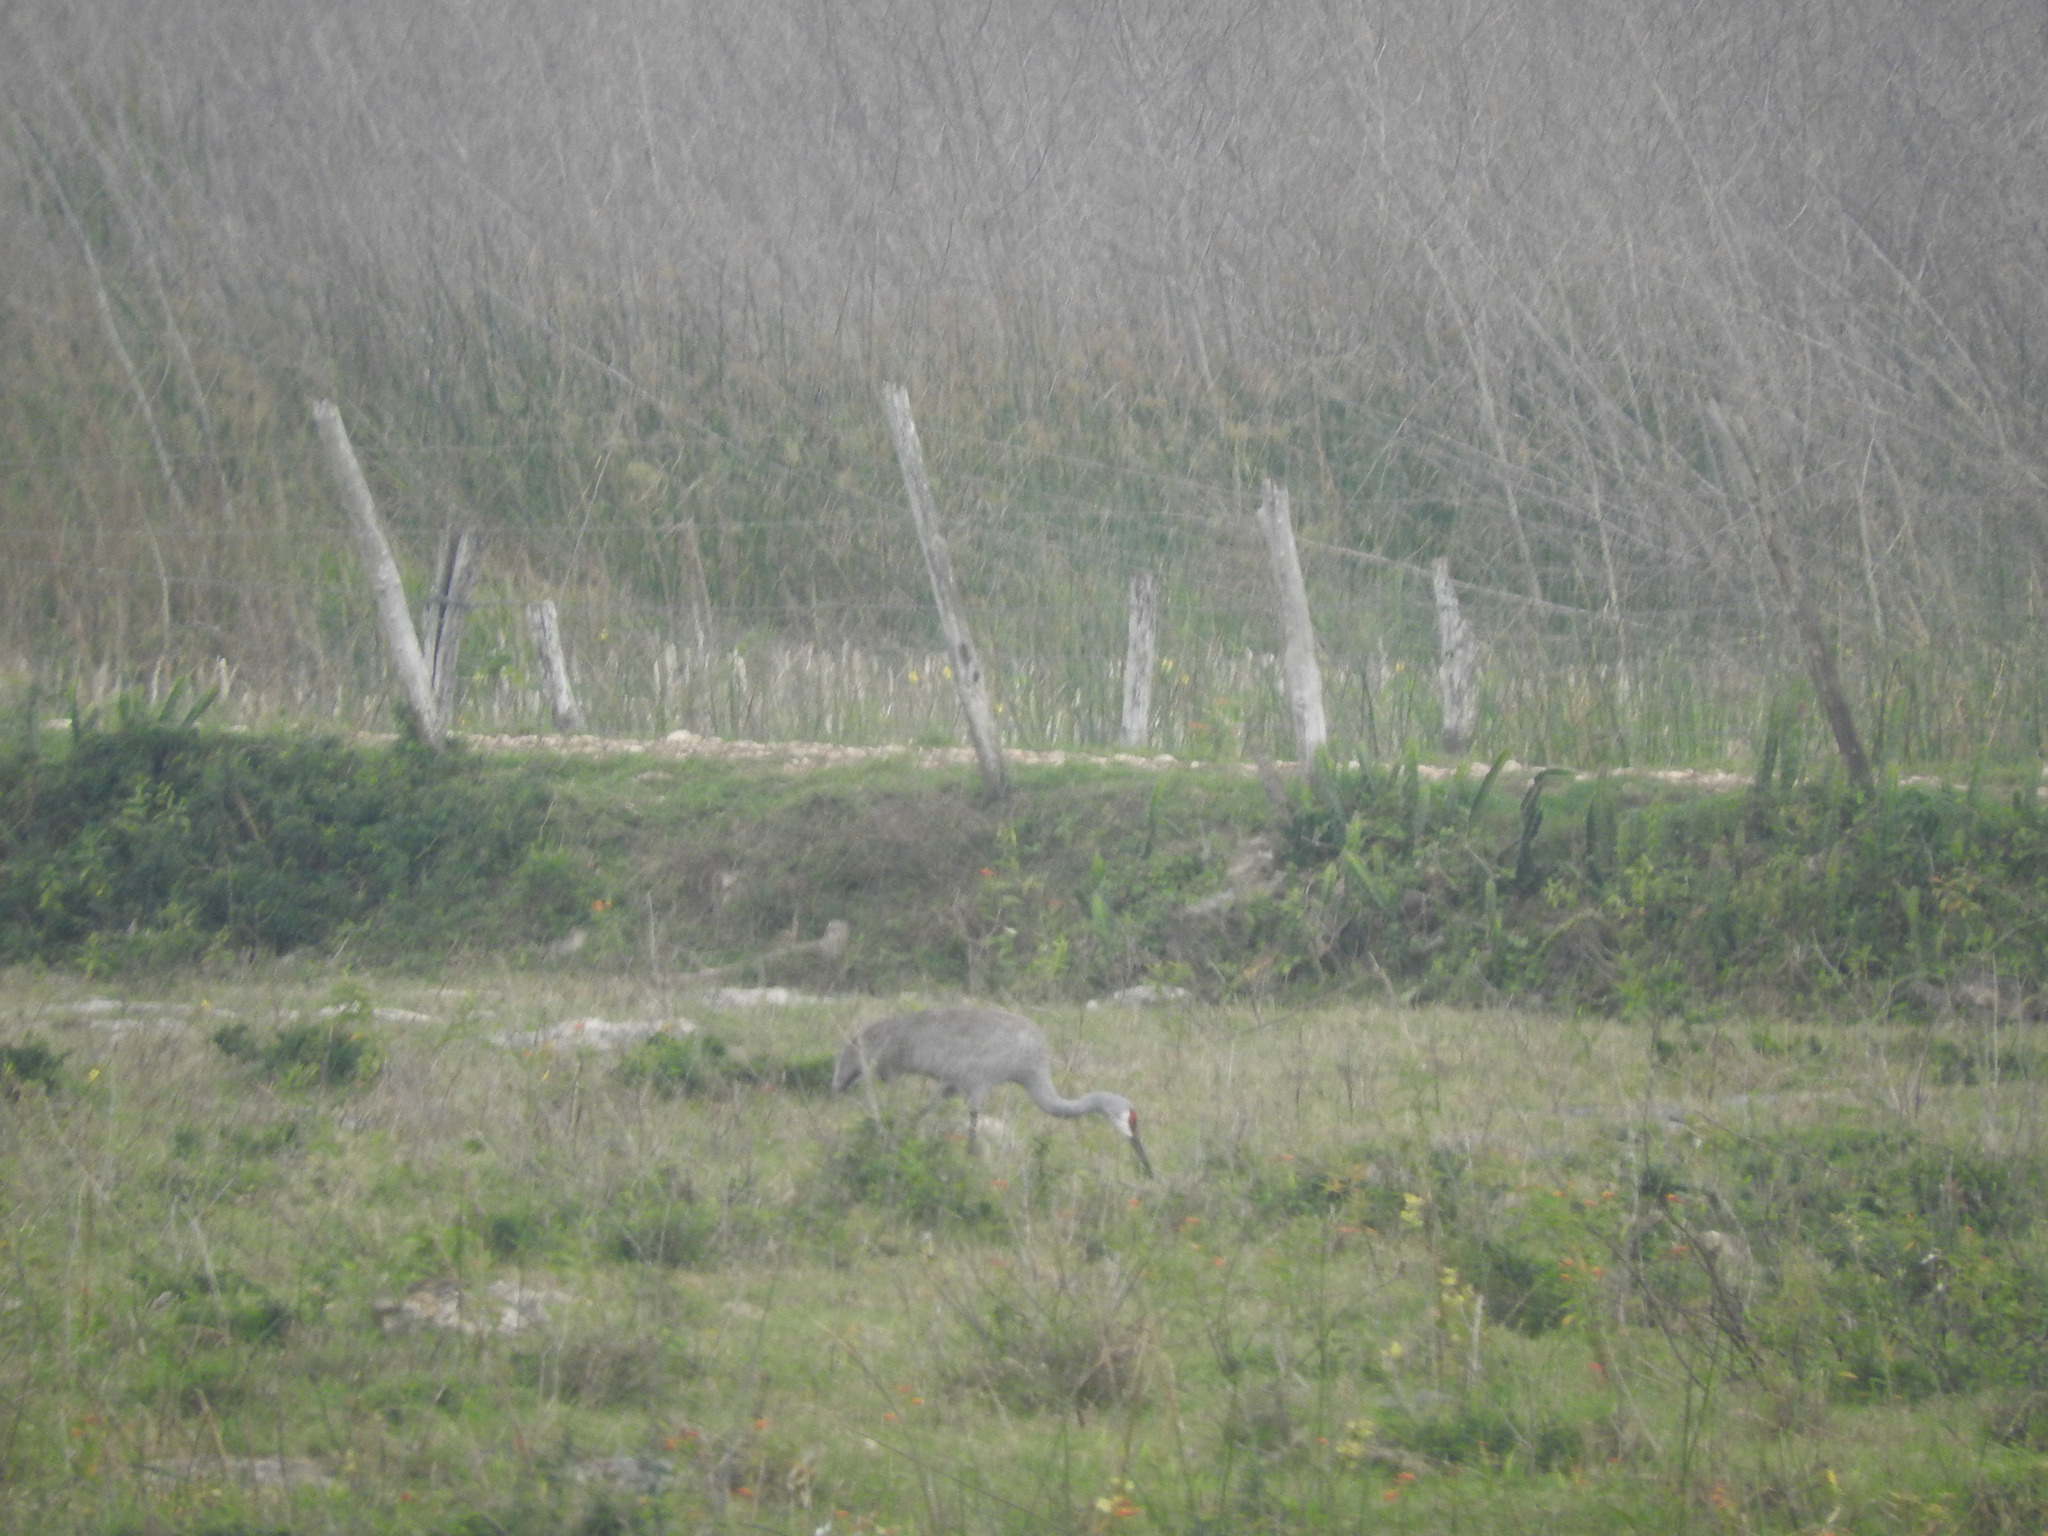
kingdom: Animalia
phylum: Chordata
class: Aves
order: Gruiformes
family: Gruidae
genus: Grus
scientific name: Grus canadensis
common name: Sandhill crane
